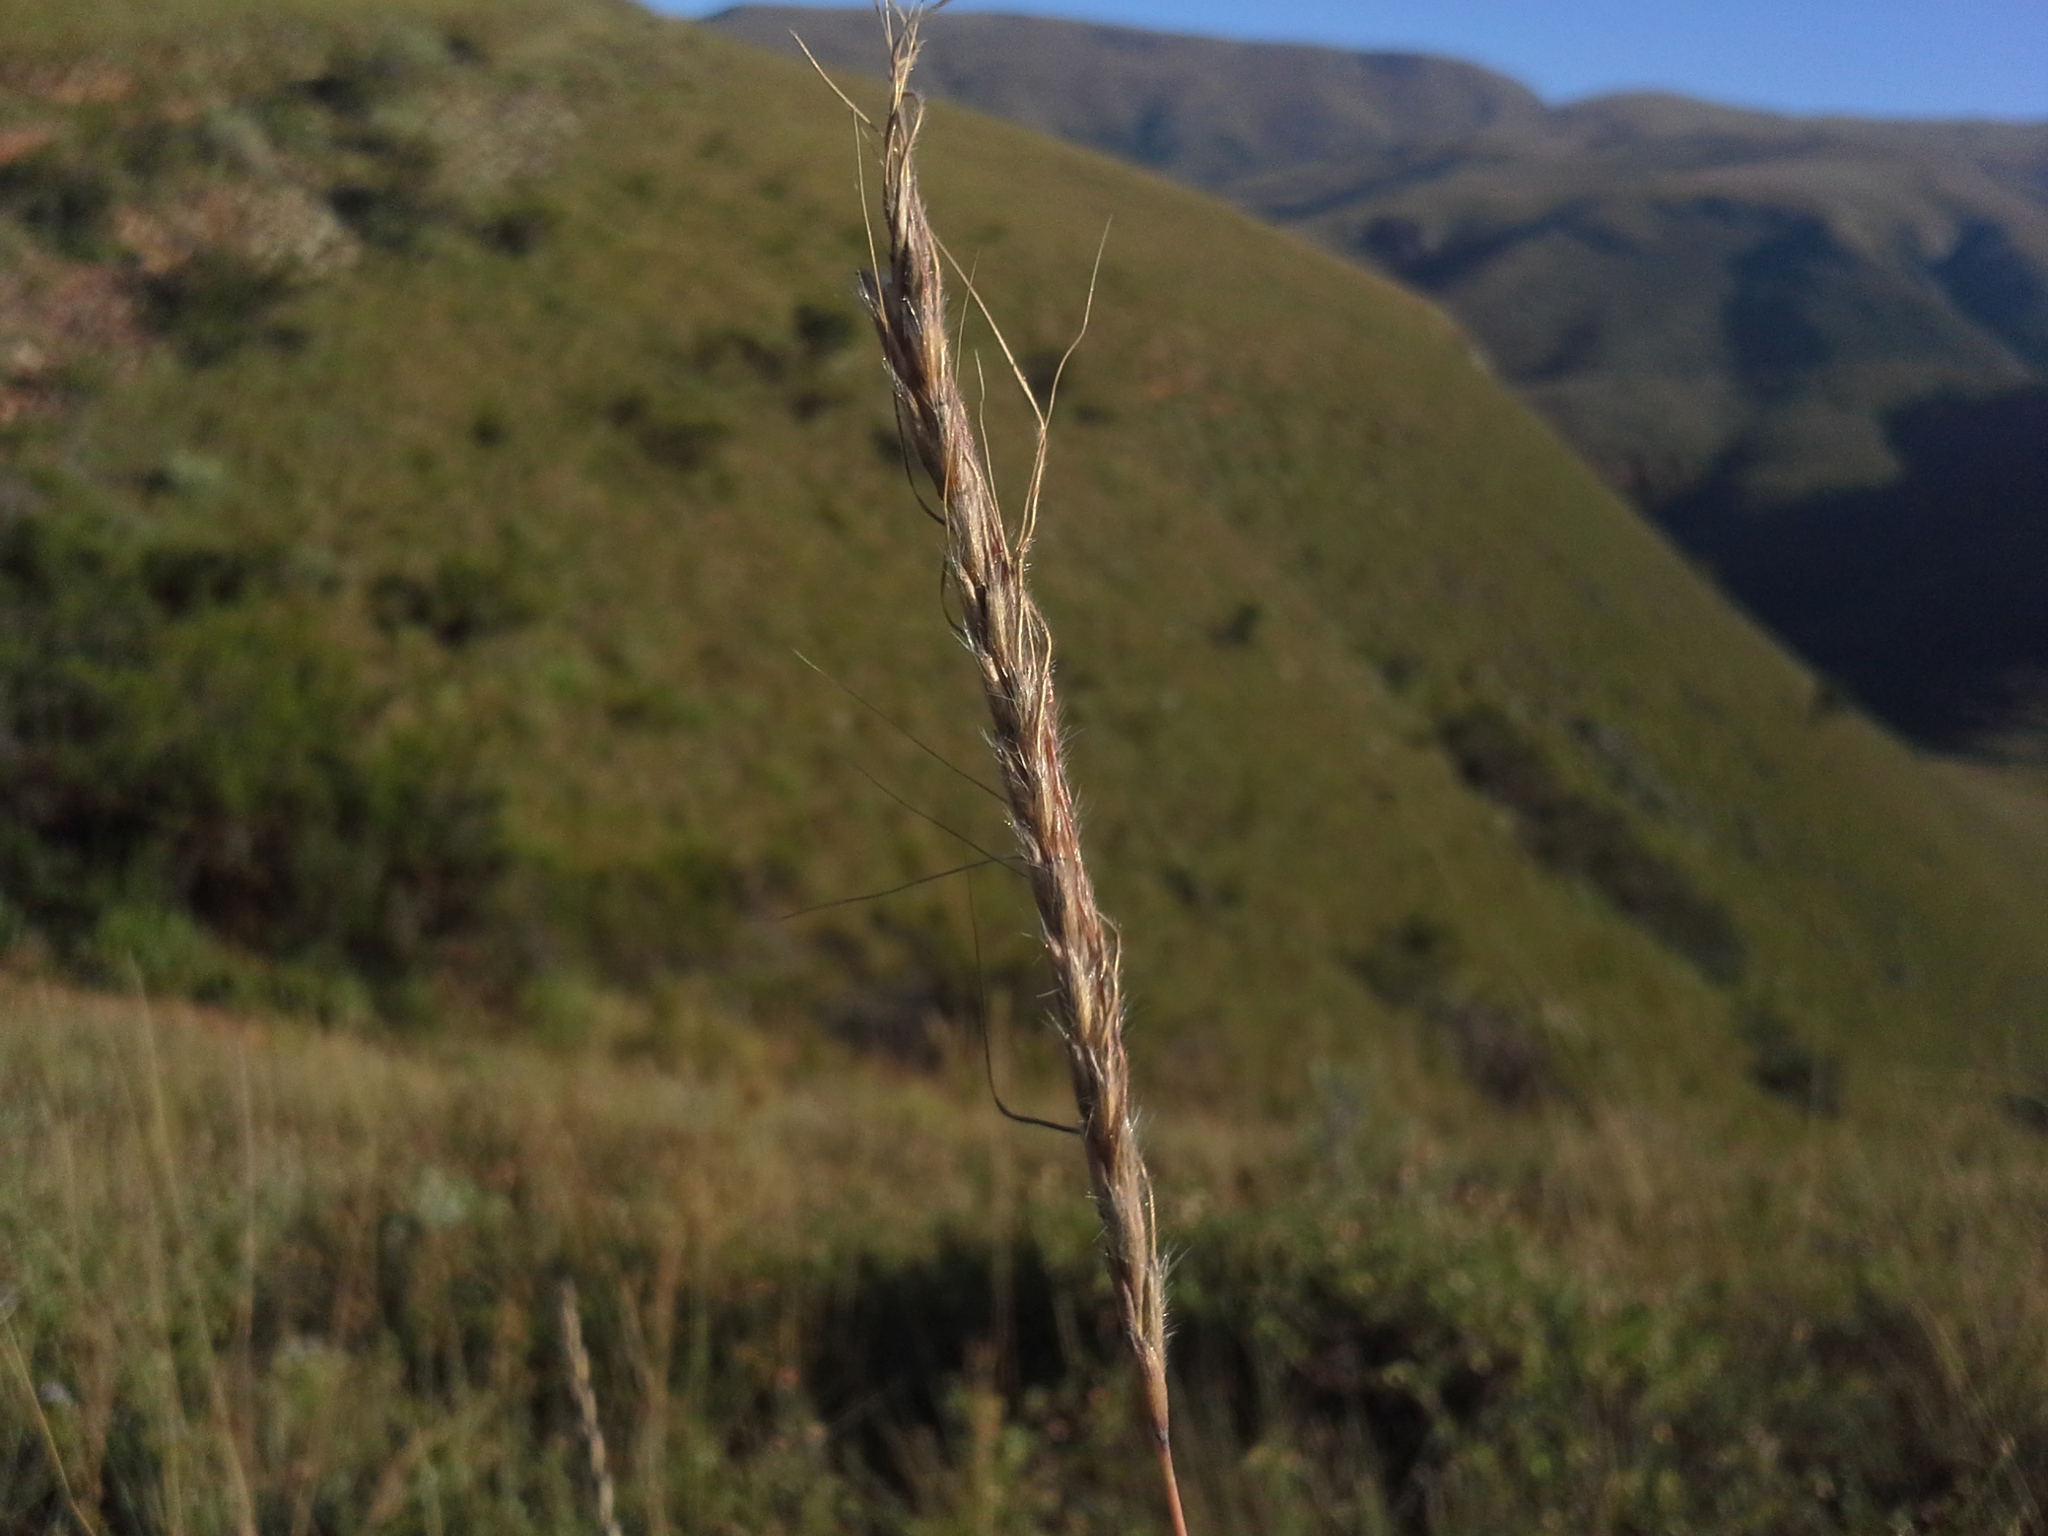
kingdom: Plantae
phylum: Tracheophyta
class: Liliopsida
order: Poales
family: Poaceae
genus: Trachypogon
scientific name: Trachypogon spicatus
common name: Crinkle-awn
